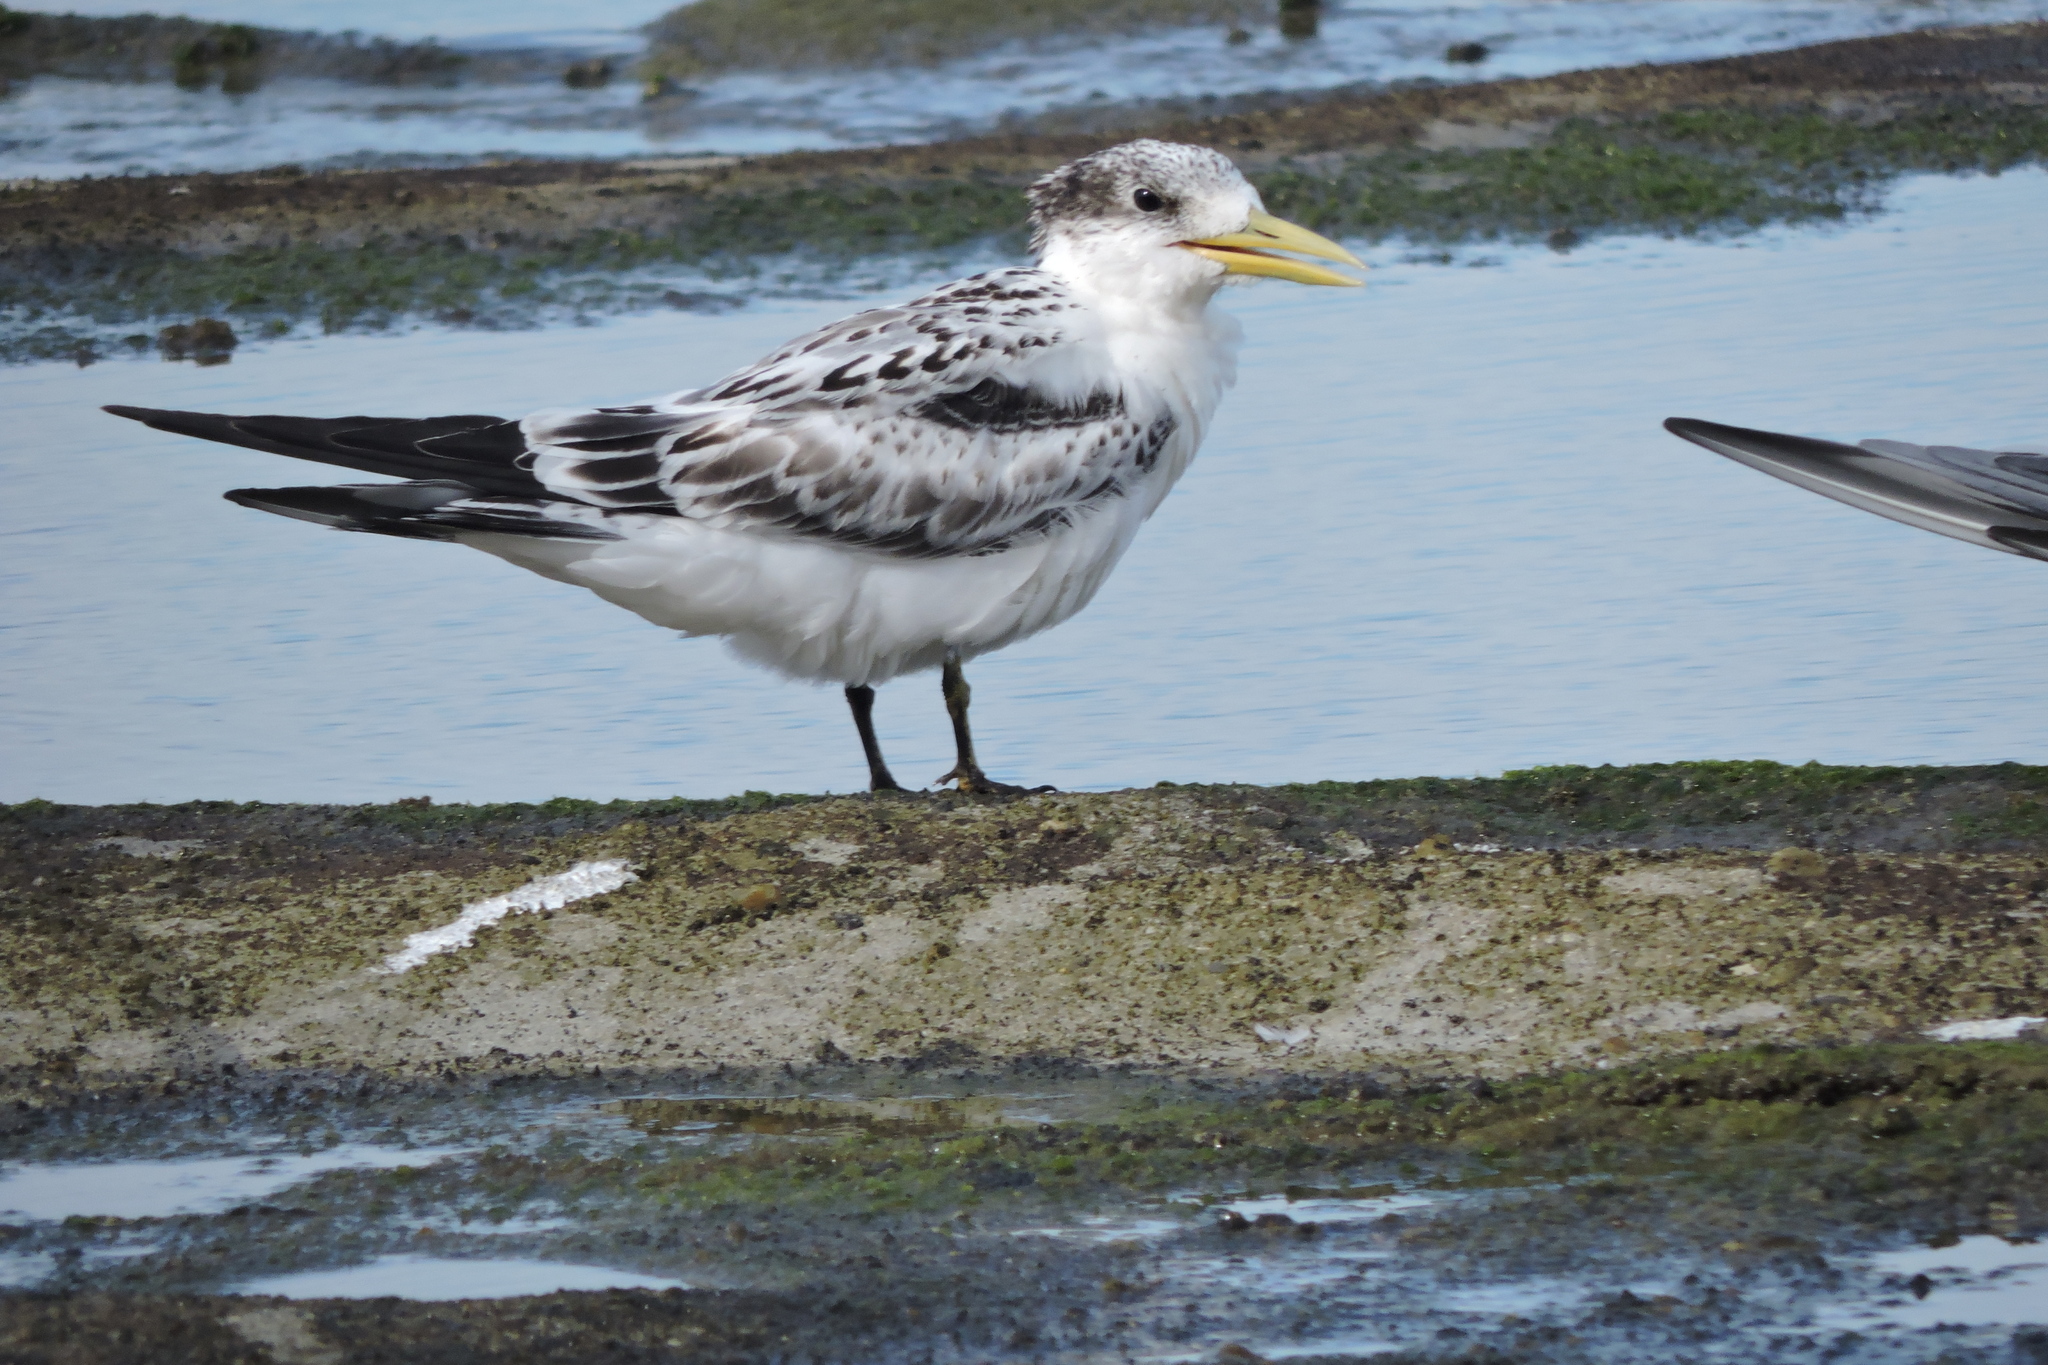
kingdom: Animalia
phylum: Chordata
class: Aves
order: Charadriiformes
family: Laridae
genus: Thalasseus
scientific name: Thalasseus bergii
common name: Greater crested tern
